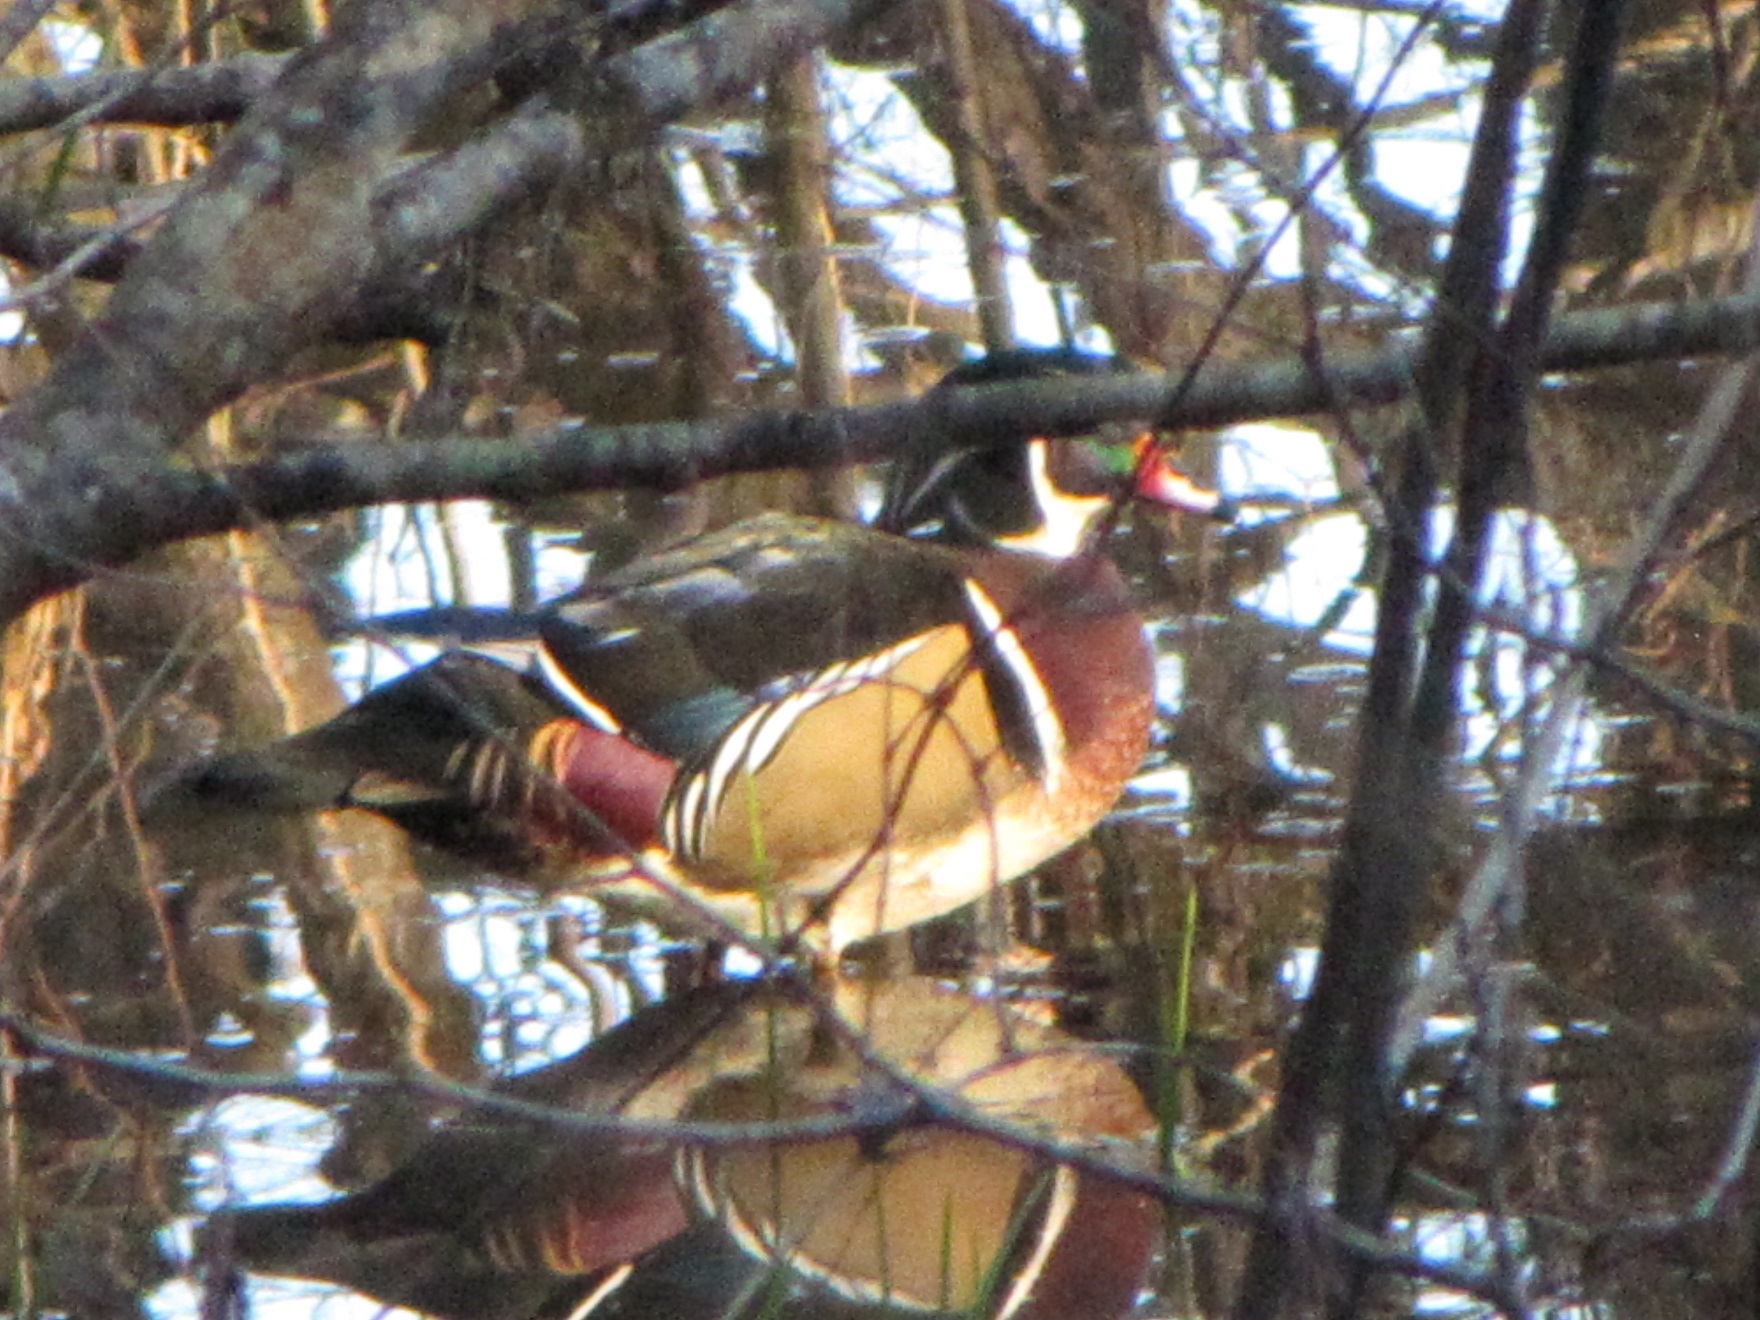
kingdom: Animalia
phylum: Chordata
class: Aves
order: Anseriformes
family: Anatidae
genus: Aix
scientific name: Aix sponsa
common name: Wood duck
